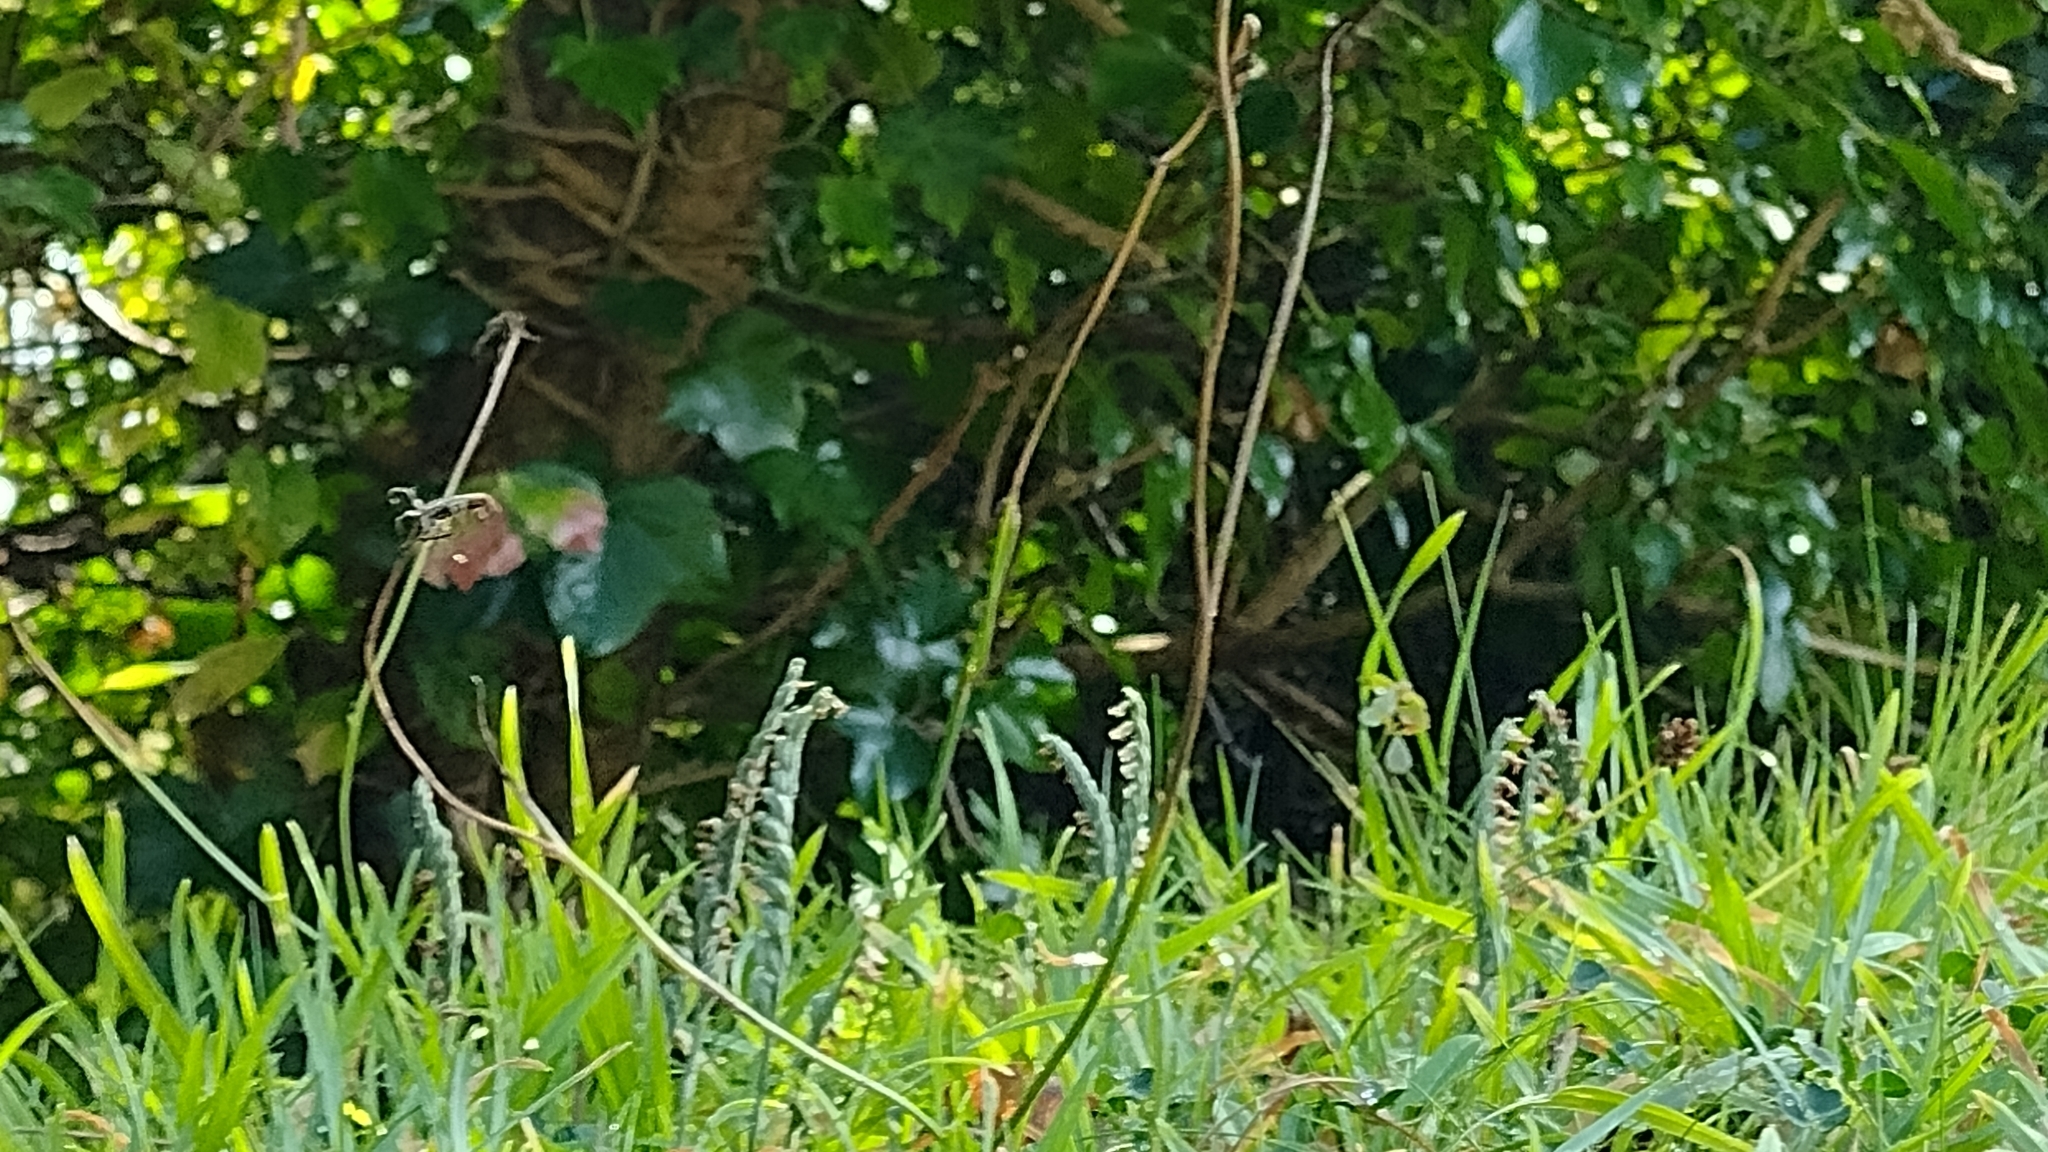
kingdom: Plantae
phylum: Tracheophyta
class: Liliopsida
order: Asparagales
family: Orchidaceae
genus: Spiranthes
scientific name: Spiranthes spiralis
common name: Autumn lady's-tresses
